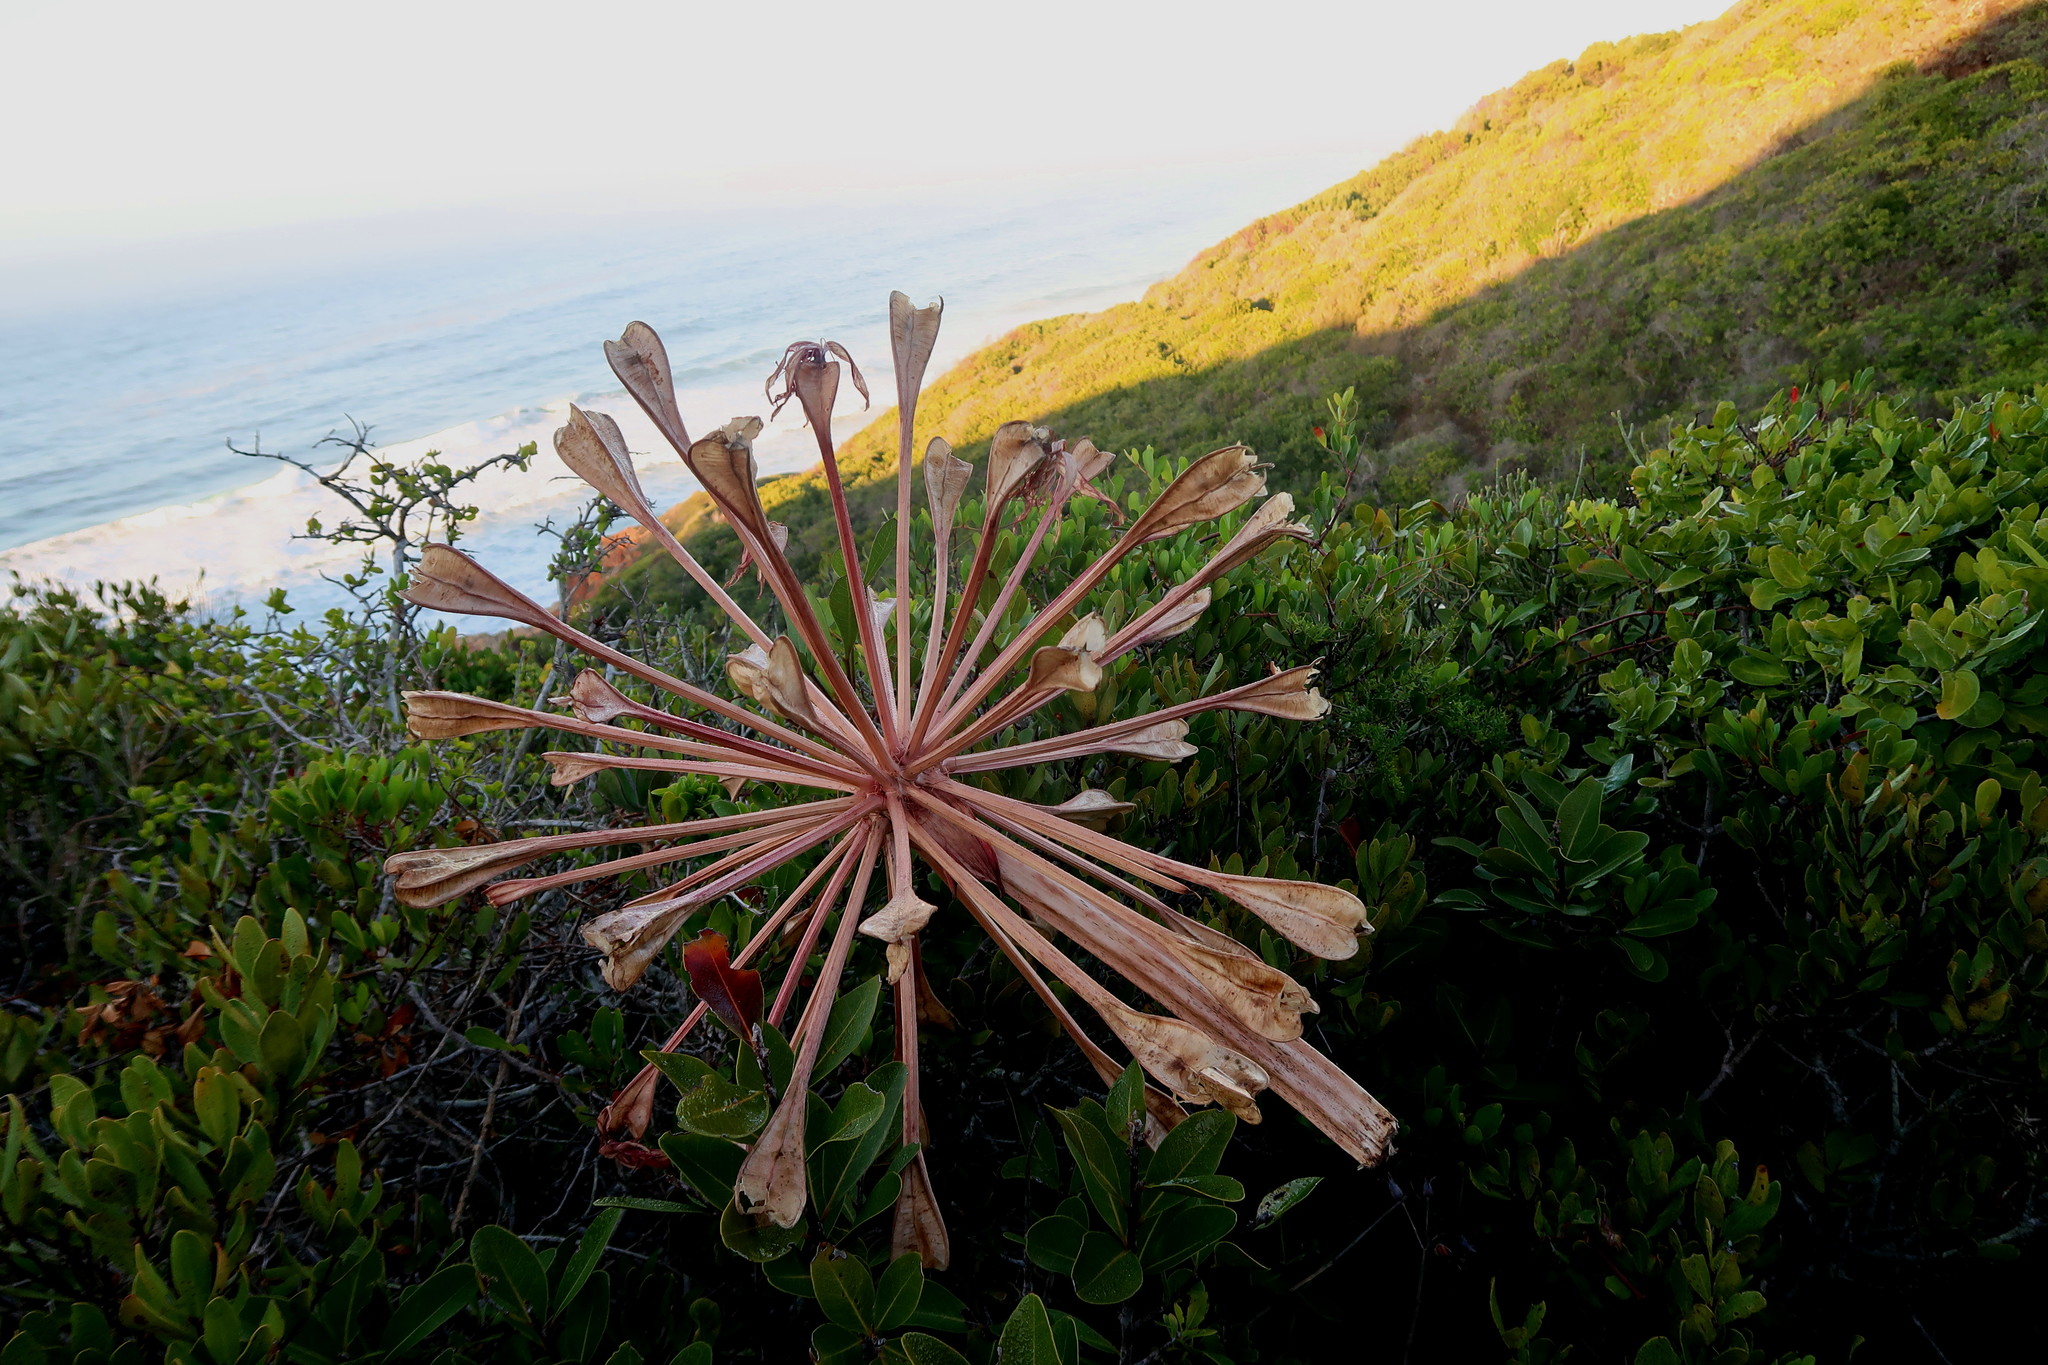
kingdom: Plantae
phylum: Tracheophyta
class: Liliopsida
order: Asparagales
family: Amaryllidaceae
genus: Brunsvigia
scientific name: Brunsvigia orientalis
